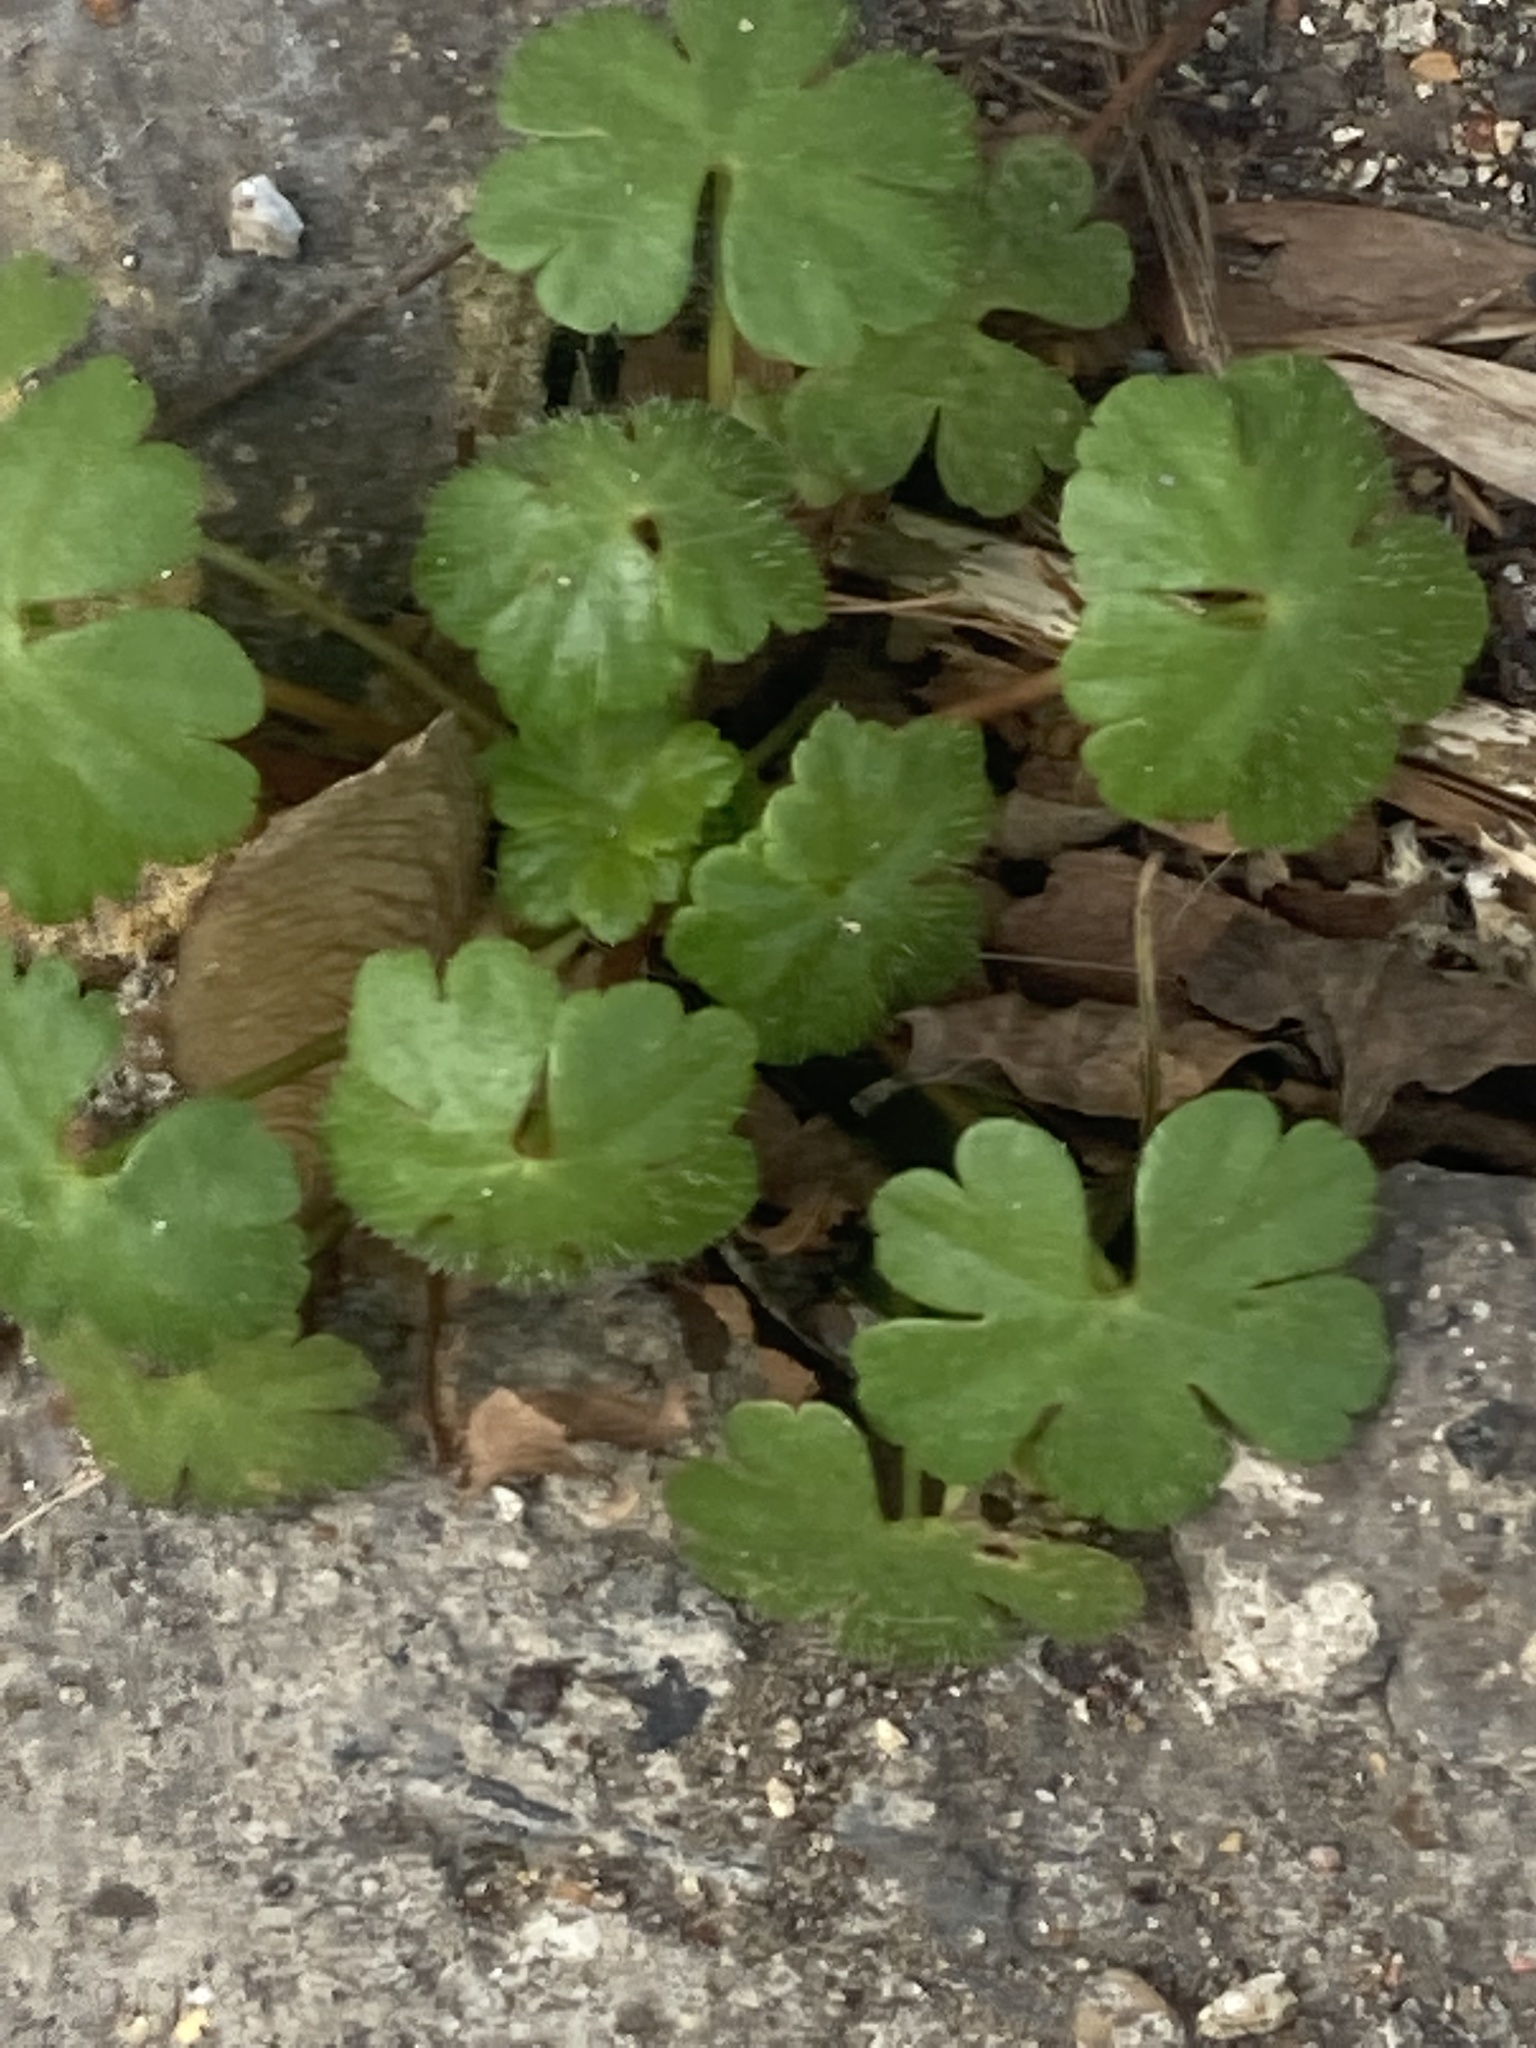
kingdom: Plantae
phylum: Tracheophyta
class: Magnoliopsida
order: Geraniales
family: Geraniaceae
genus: Geranium
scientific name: Geranium lucidum
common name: Shining crane's-bill
